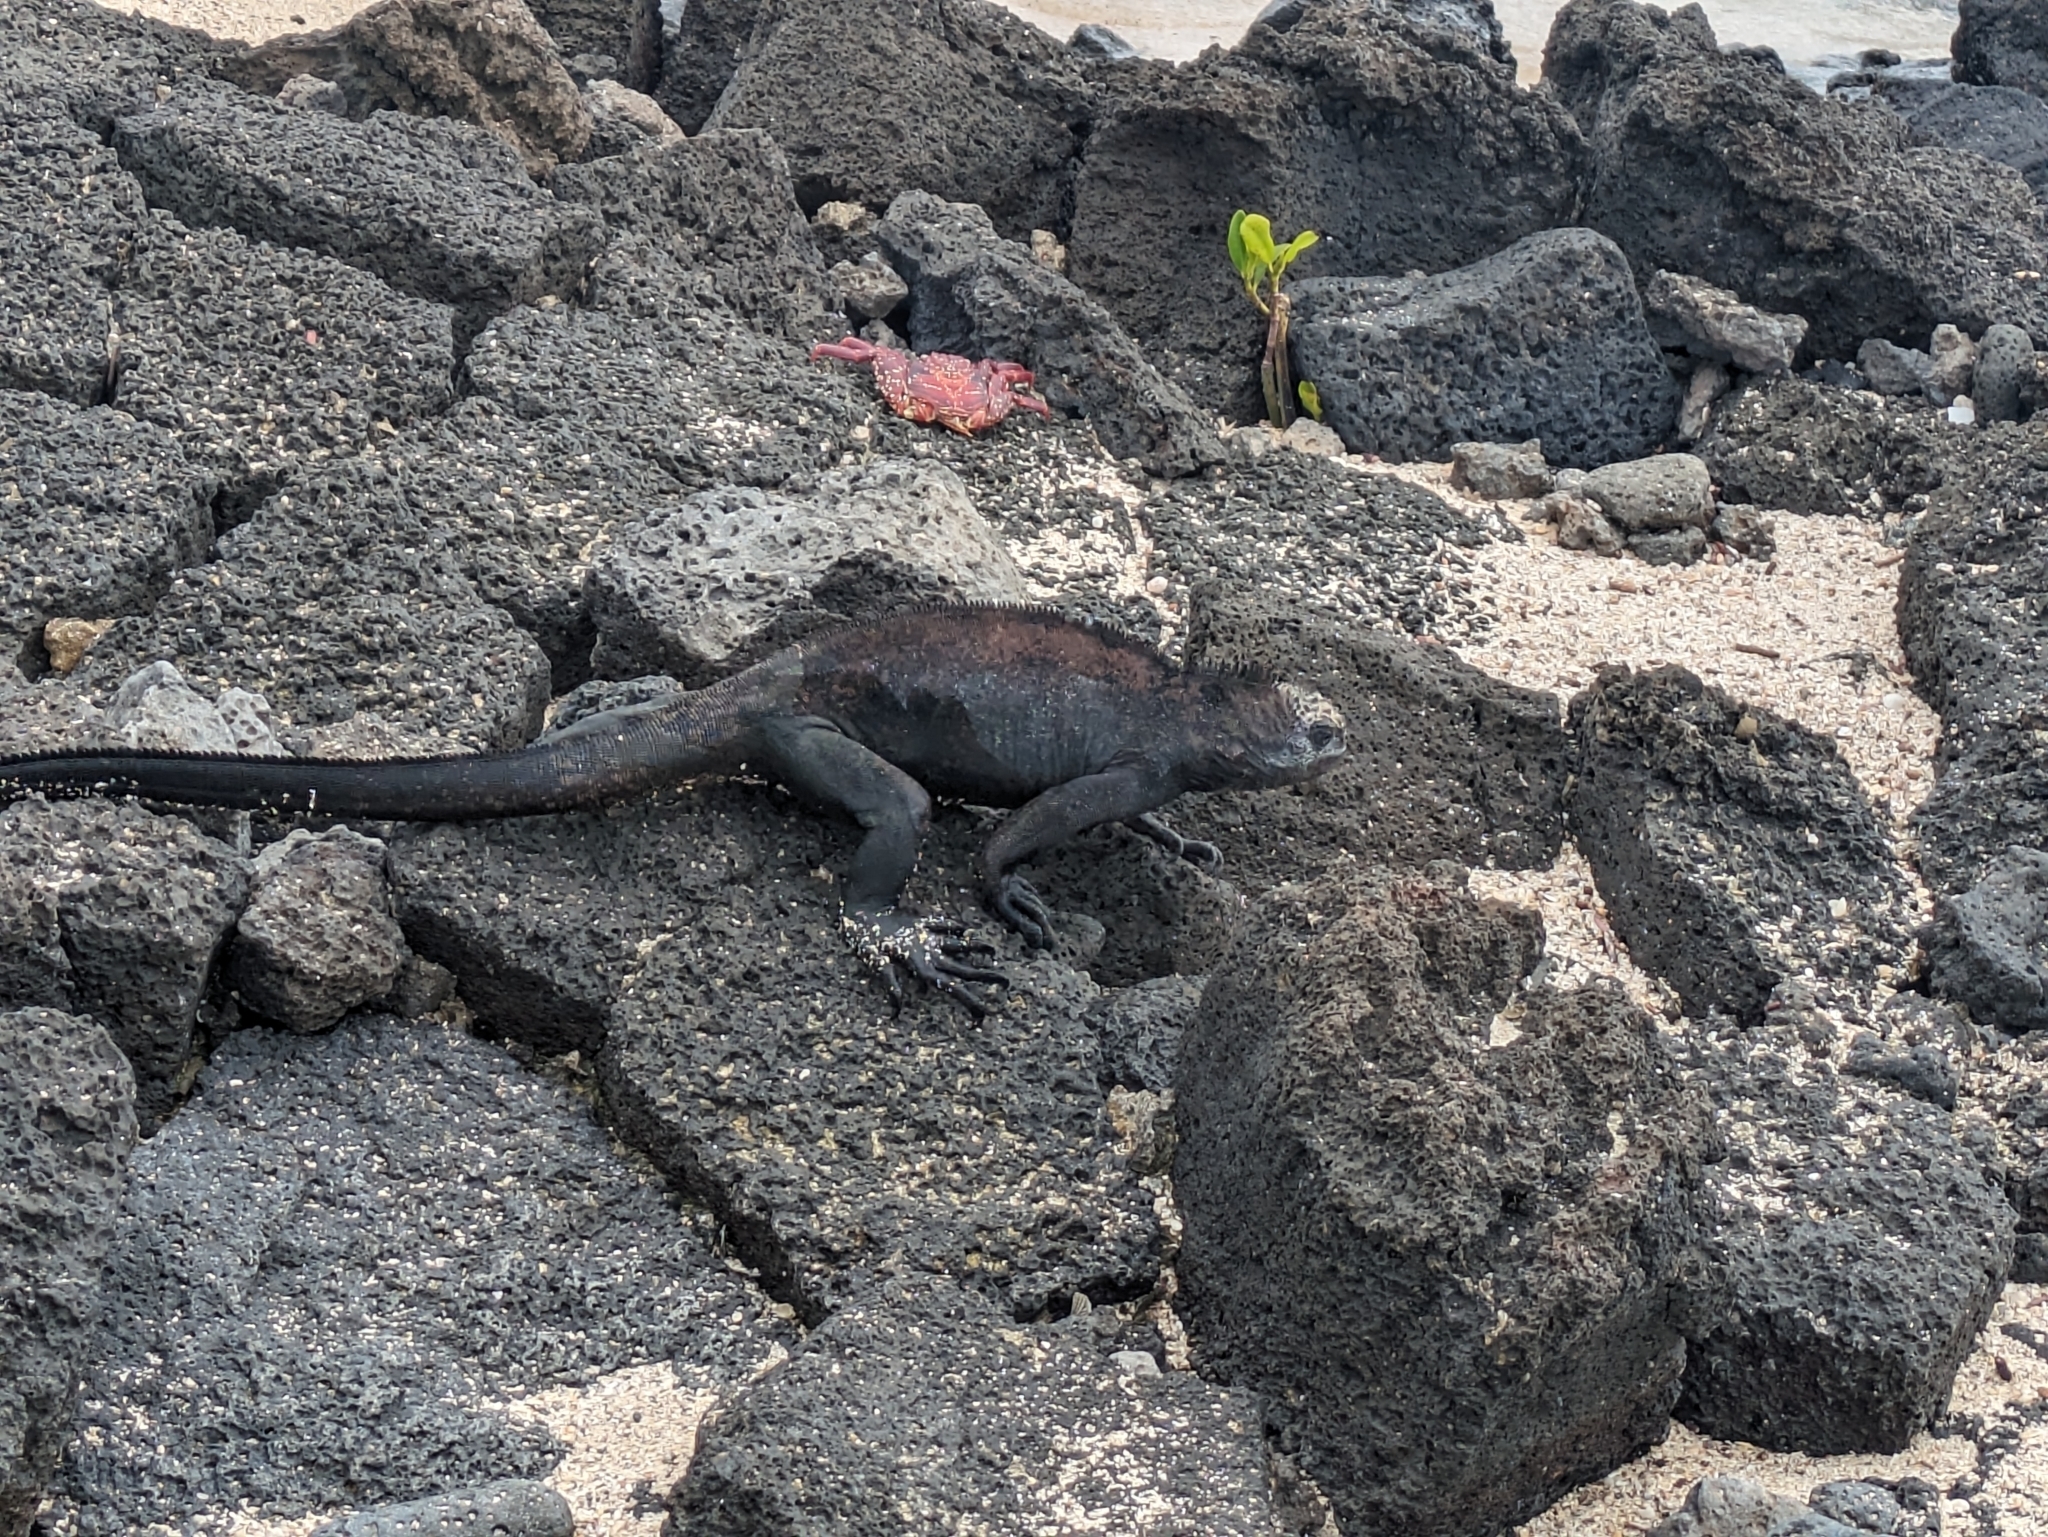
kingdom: Animalia
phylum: Chordata
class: Squamata
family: Iguanidae
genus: Amblyrhynchus
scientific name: Amblyrhynchus cristatus
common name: Marine iguana
